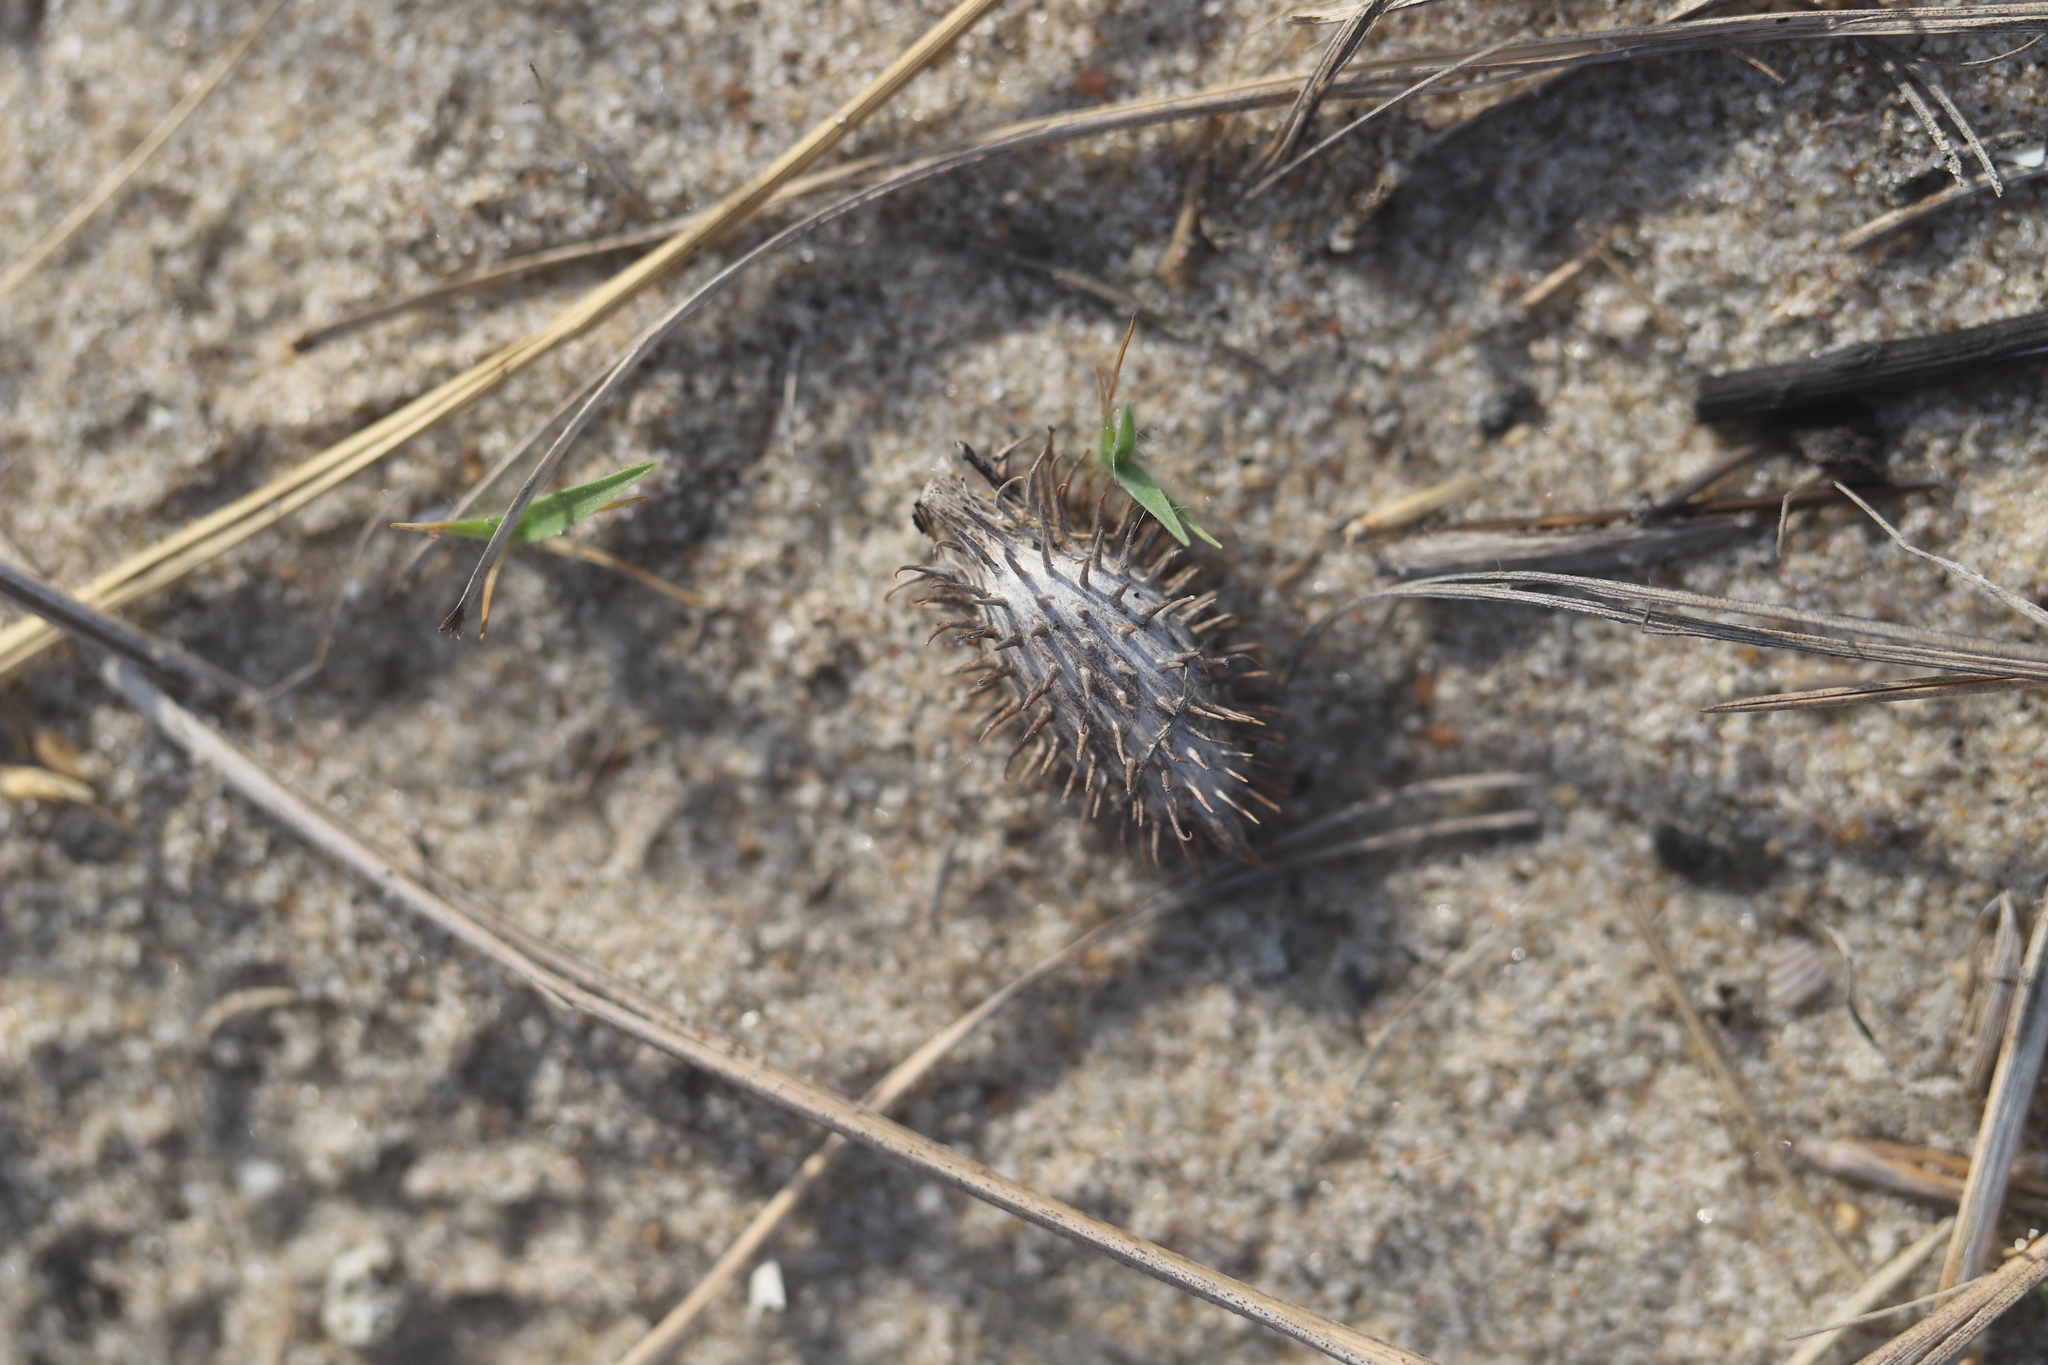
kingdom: Plantae
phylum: Tracheophyta
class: Magnoliopsida
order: Asterales
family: Asteraceae
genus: Xanthium
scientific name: Xanthium strumarium
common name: Rough cocklebur
